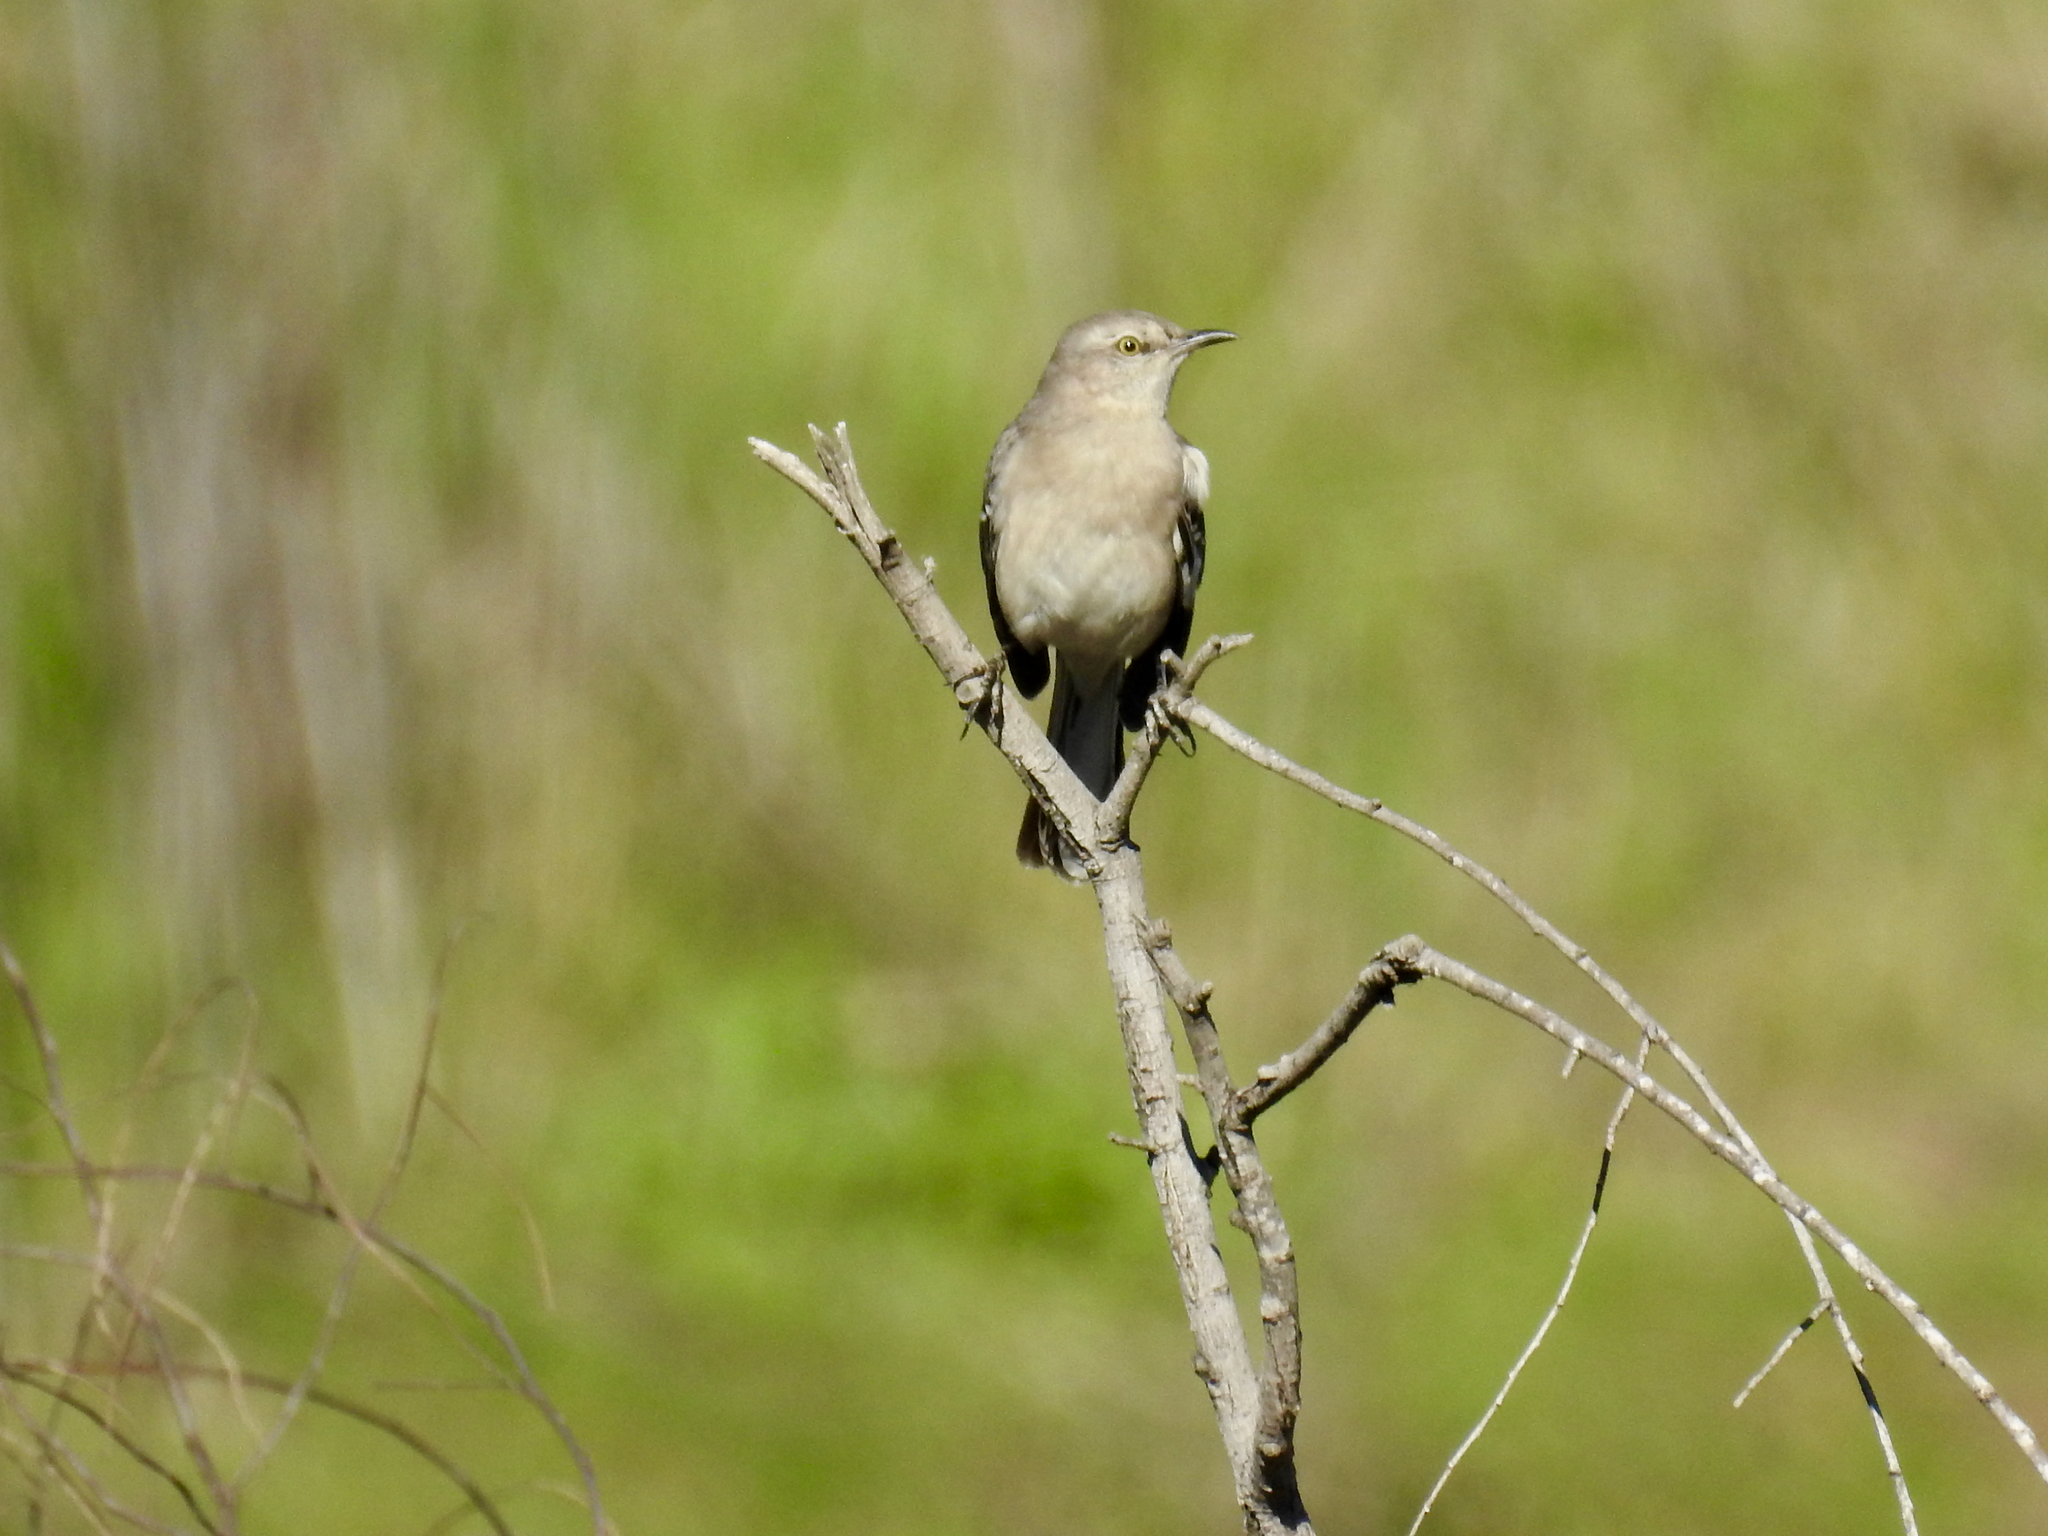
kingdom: Animalia
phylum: Chordata
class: Aves
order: Passeriformes
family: Mimidae
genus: Mimus
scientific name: Mimus polyglottos
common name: Northern mockingbird
